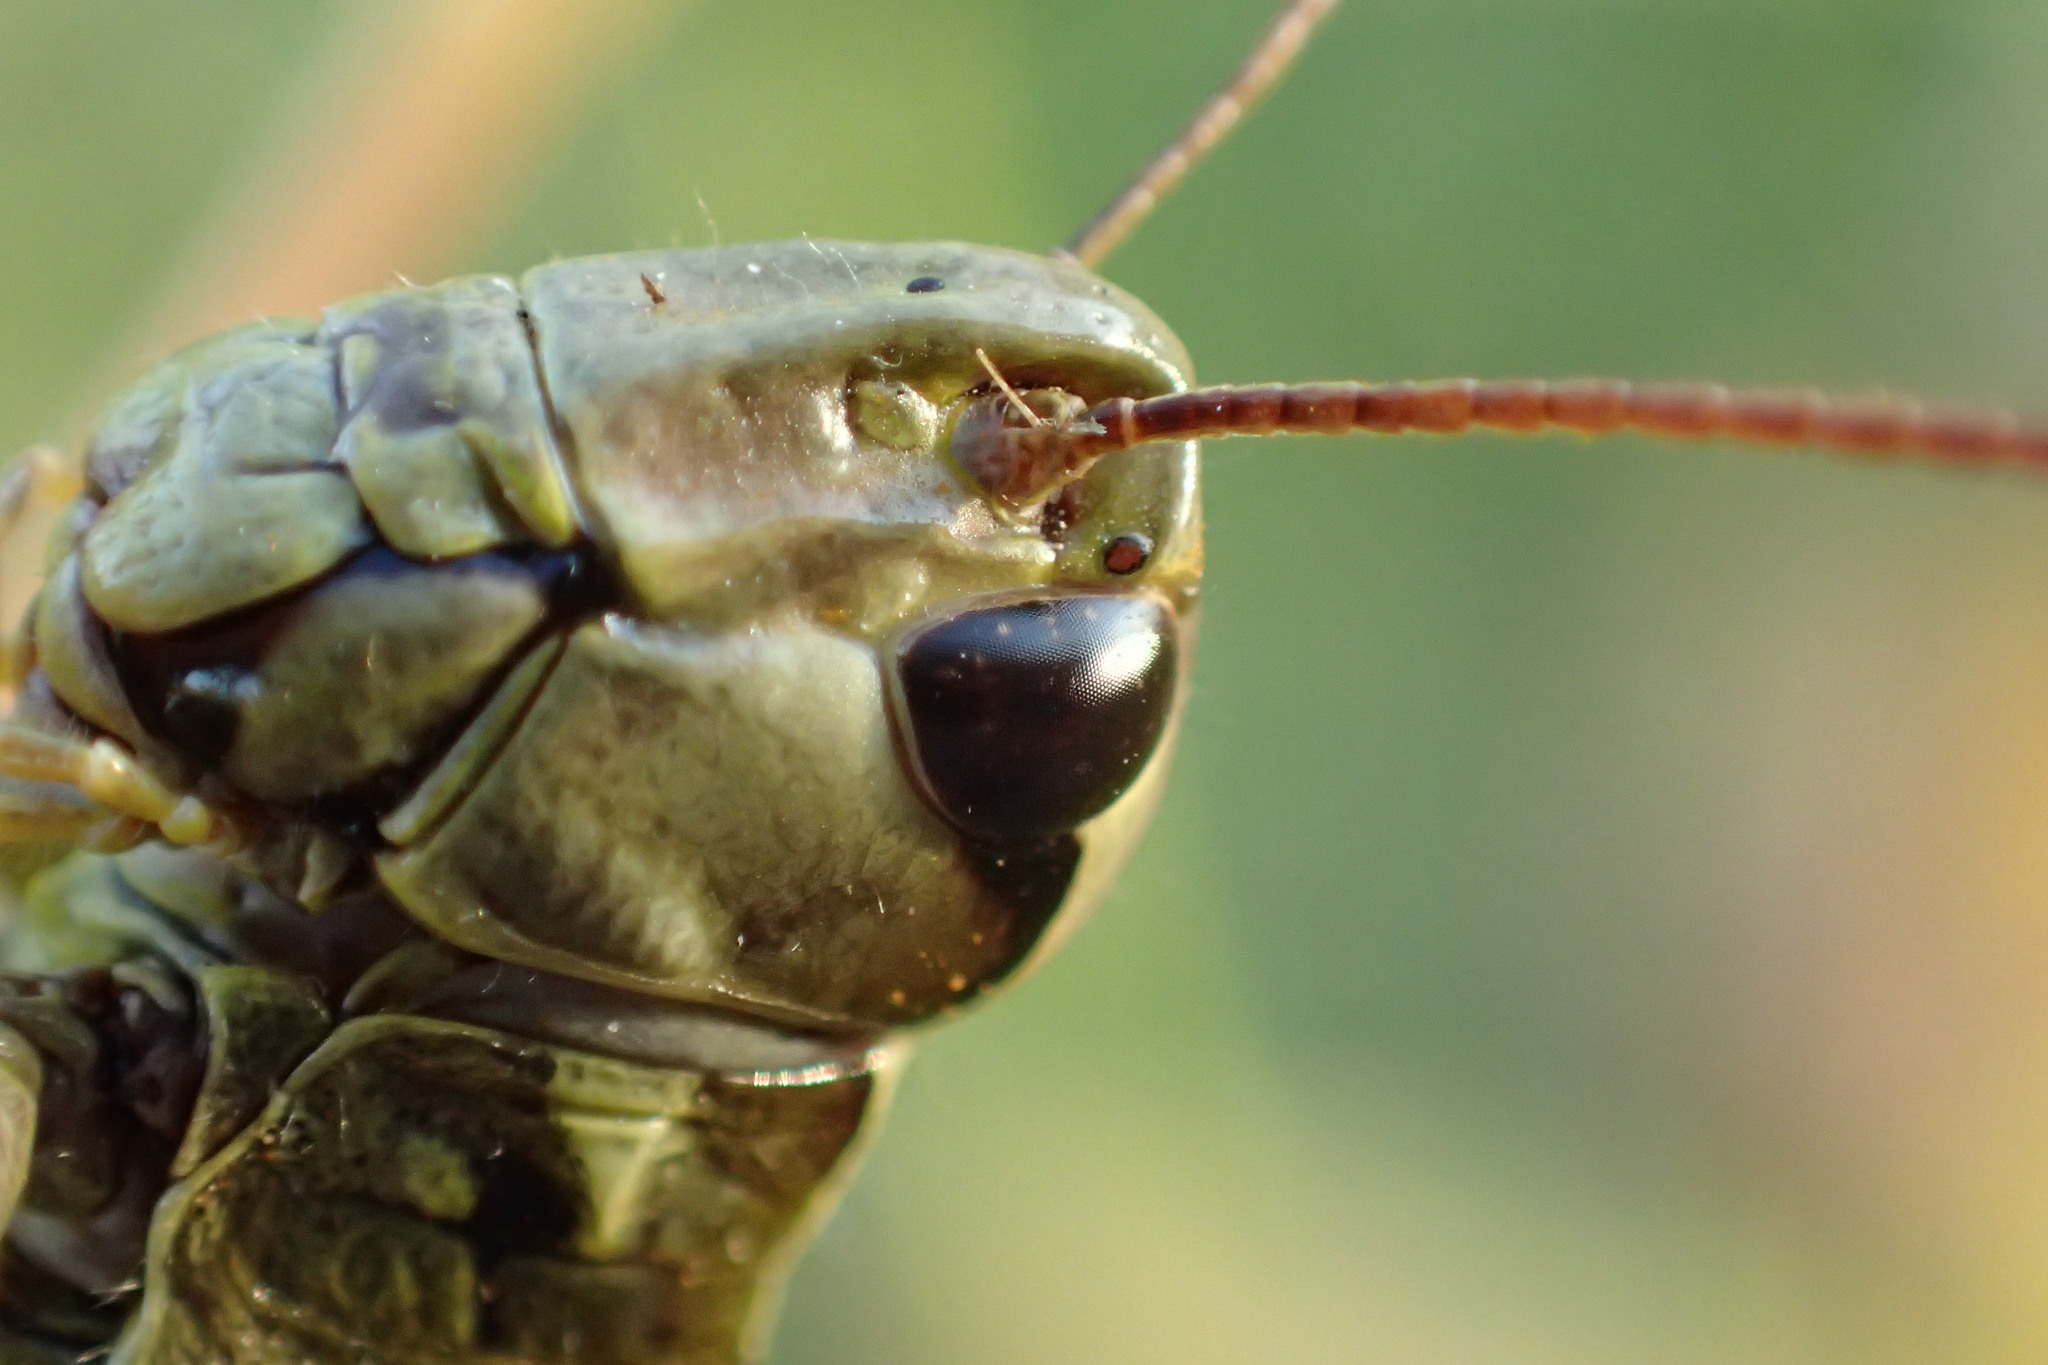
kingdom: Animalia
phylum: Arthropoda
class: Insecta
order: Orthoptera
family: Acrididae
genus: Stethophyma
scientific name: Stethophyma grossum
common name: Large marsh grasshopper
